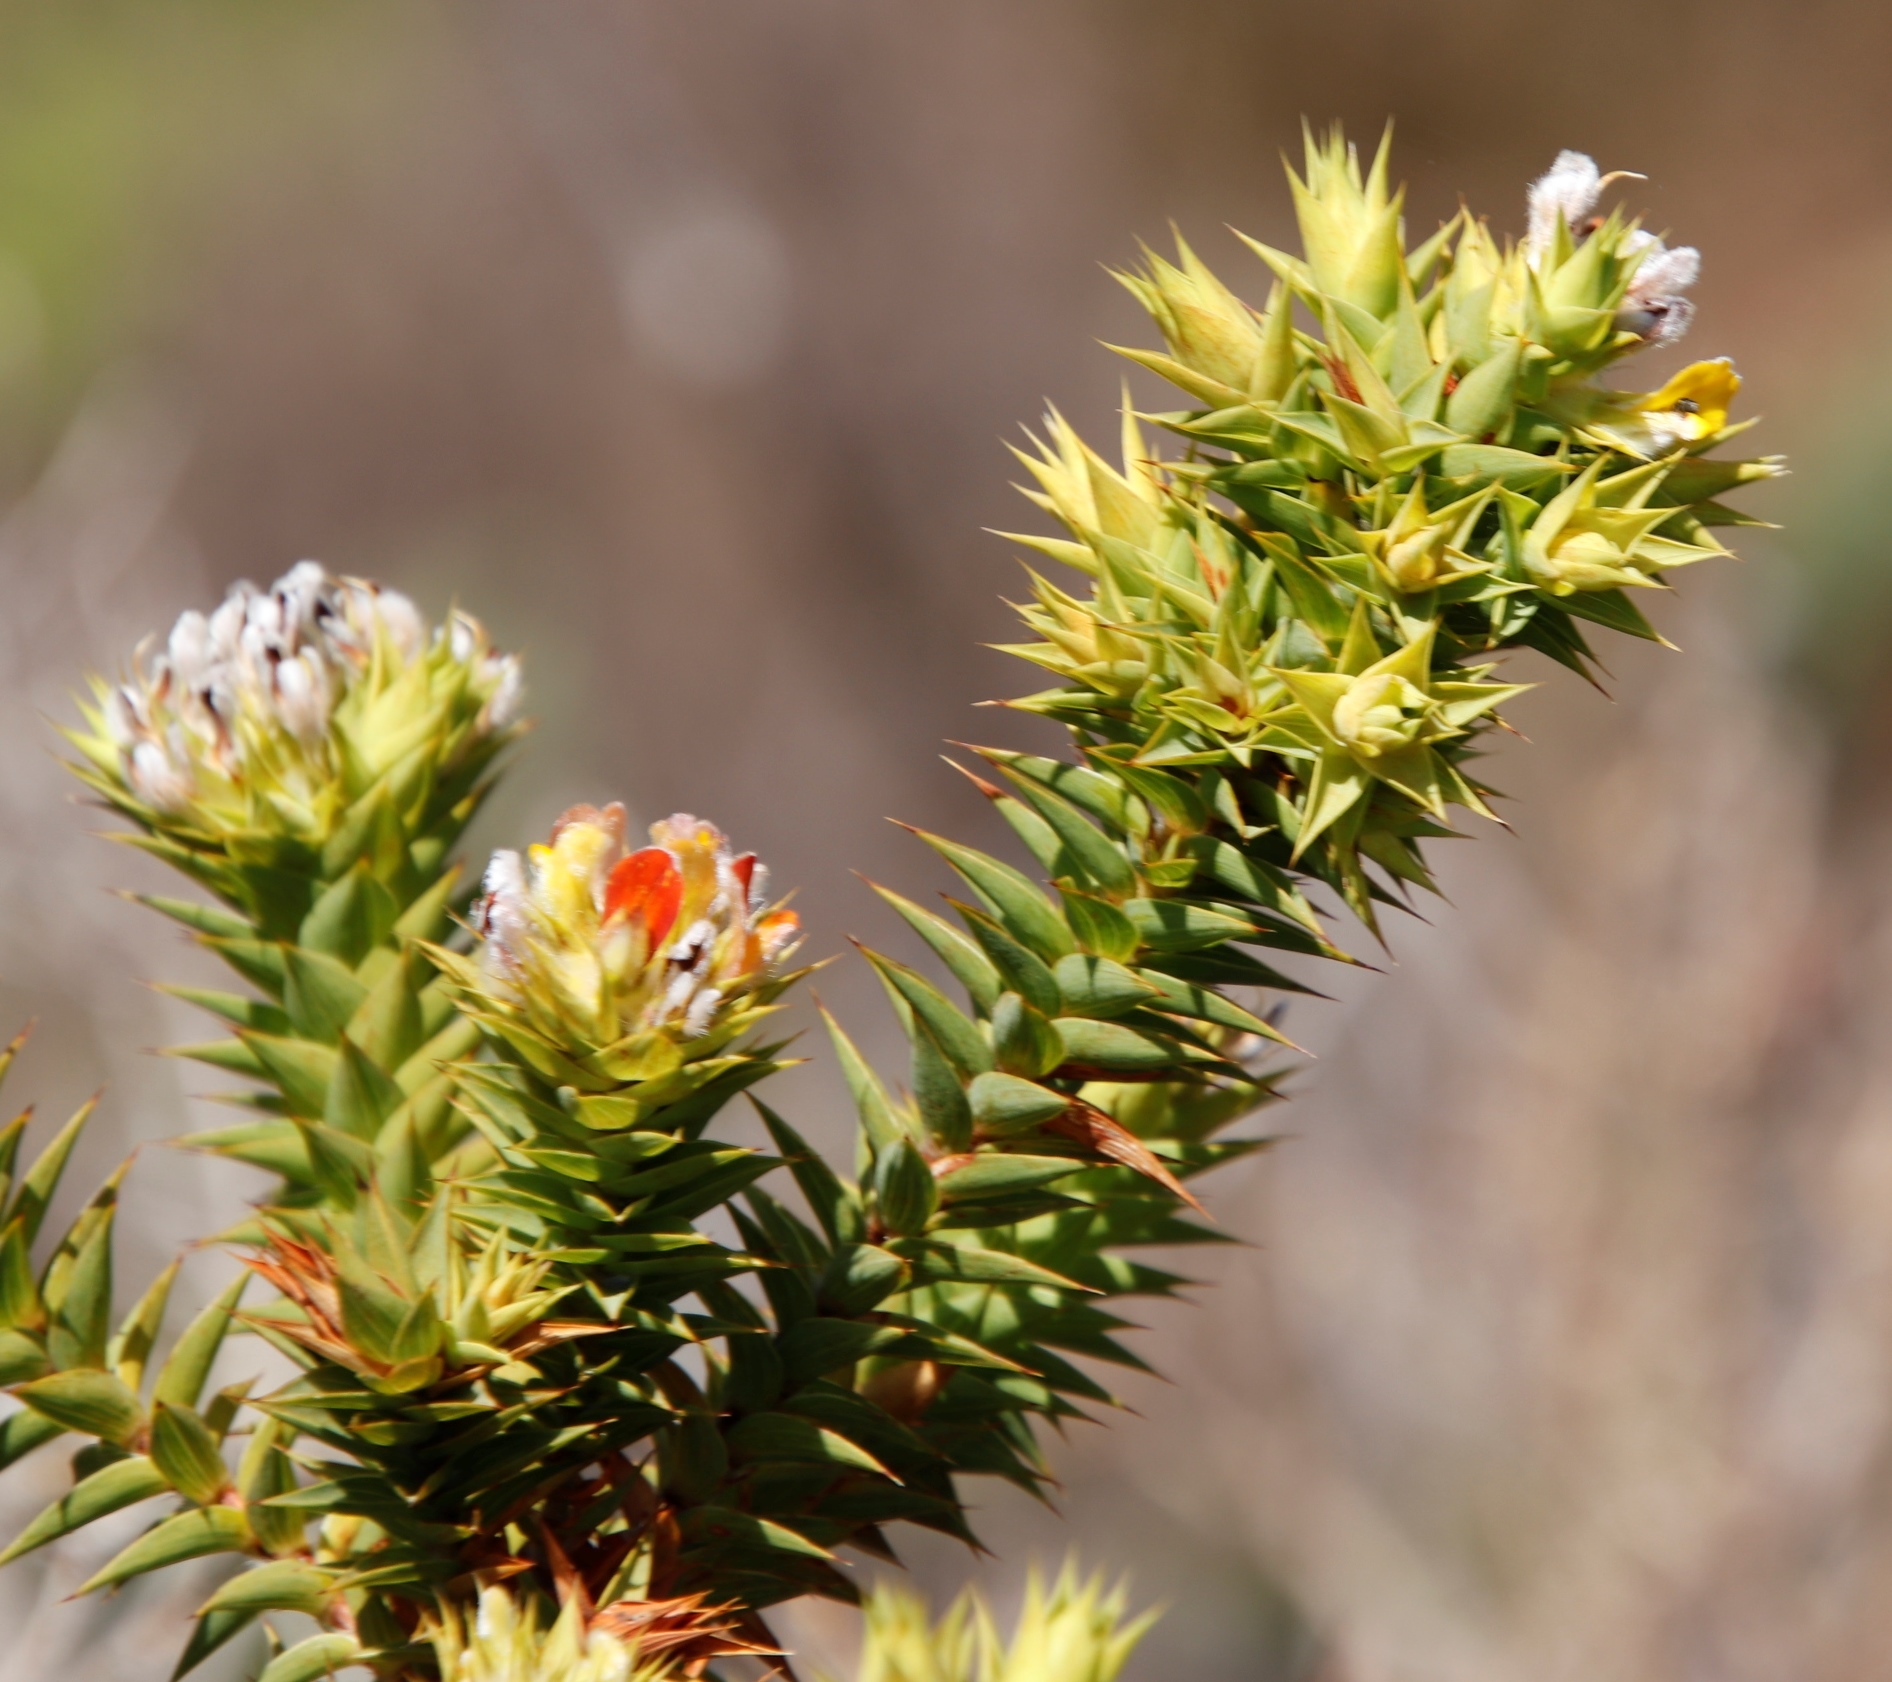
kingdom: Plantae
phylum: Tracheophyta
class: Magnoliopsida
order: Fabales
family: Fabaceae
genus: Aspalathus
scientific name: Aspalathus cordata
